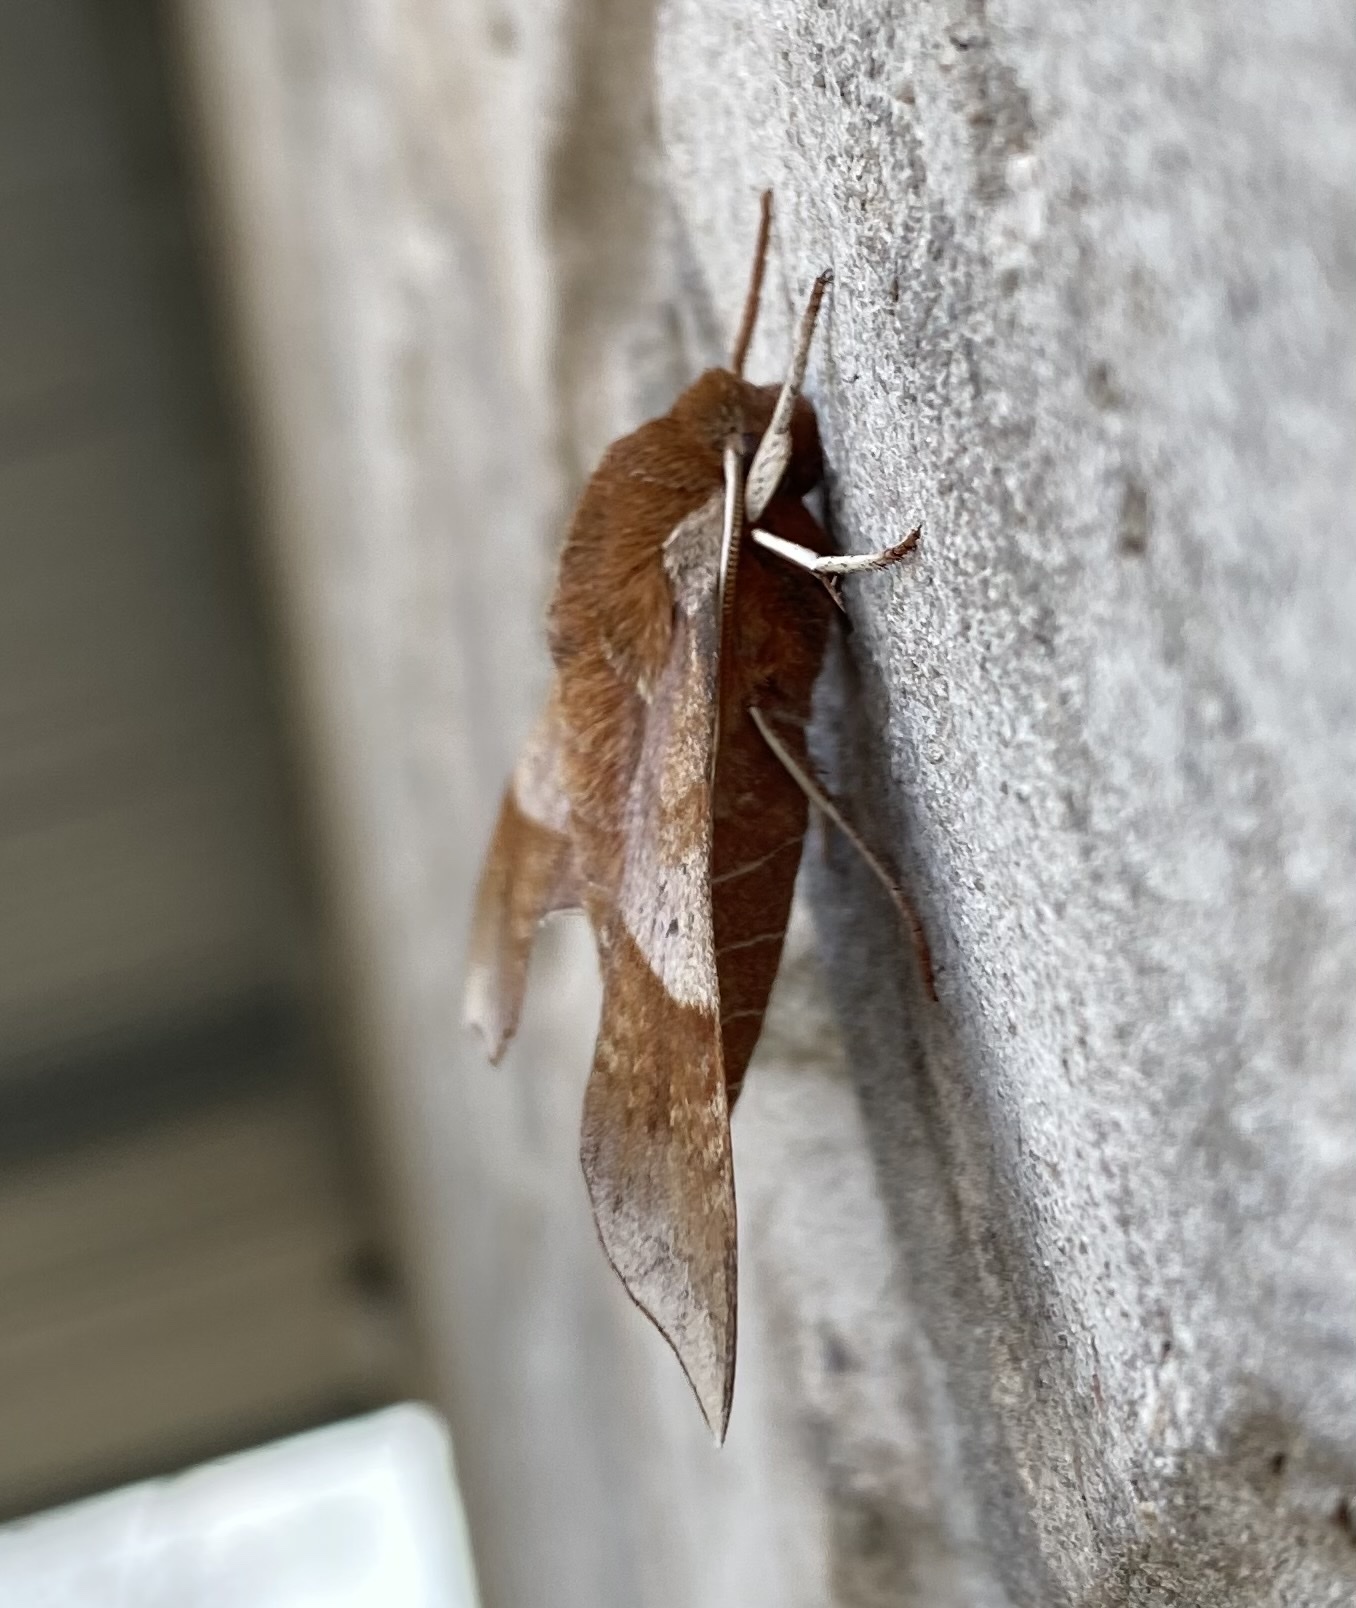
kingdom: Animalia
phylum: Arthropoda
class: Insecta
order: Lepidoptera
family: Sphingidae
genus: Darapsa
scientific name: Darapsa choerilus
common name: Azalea sphinx
